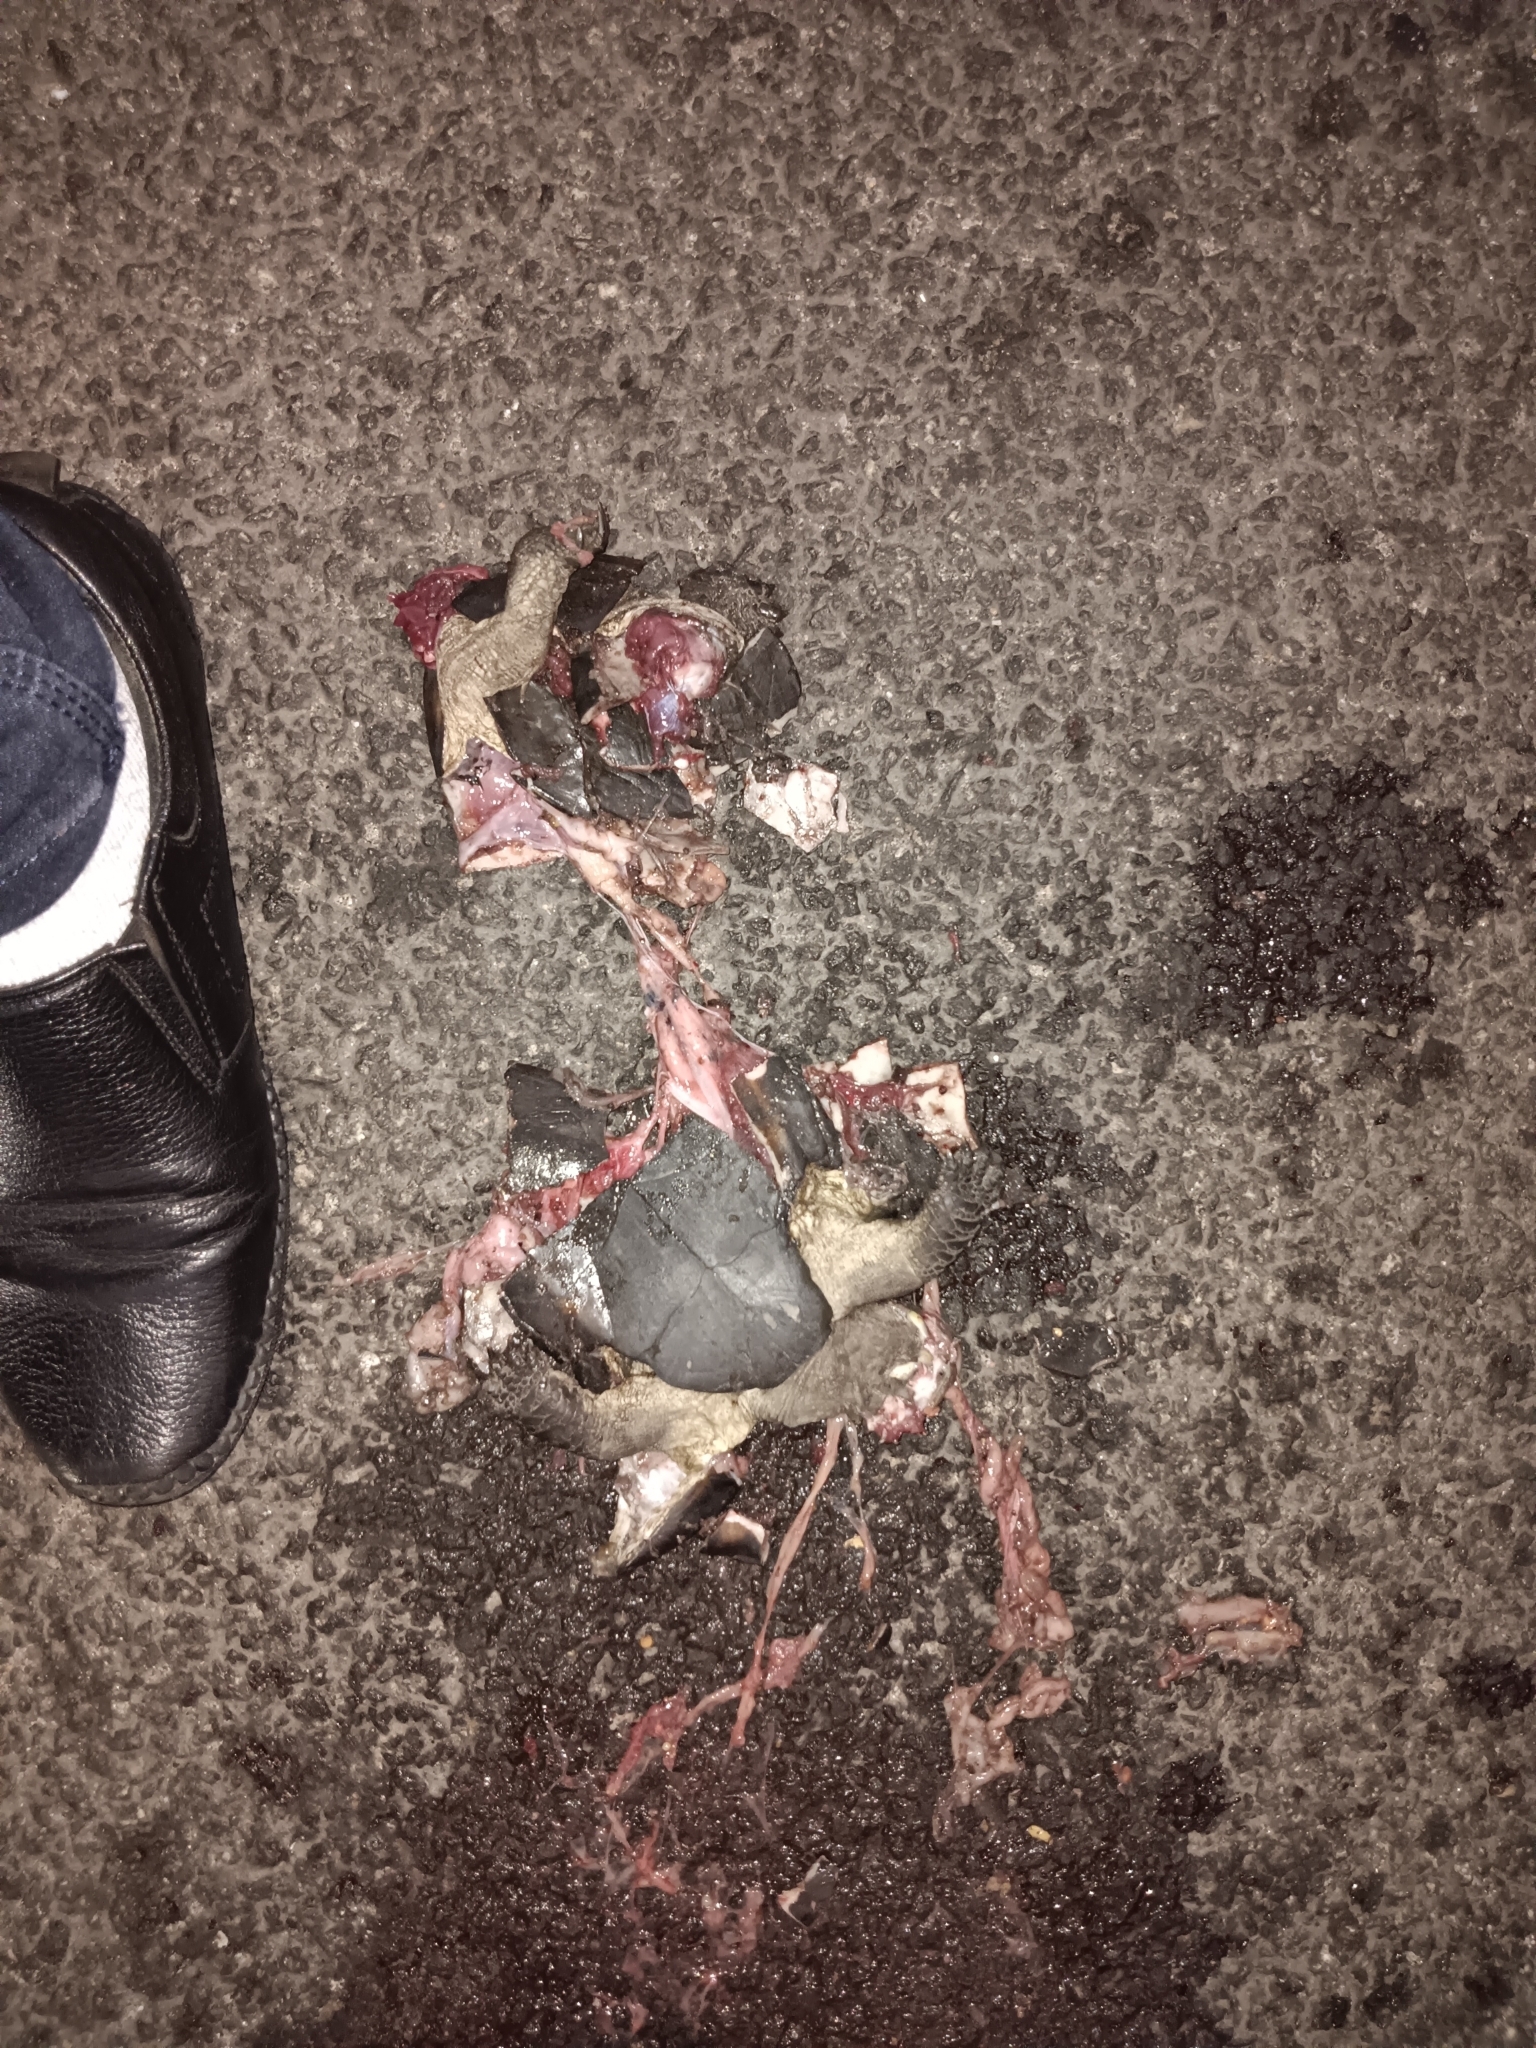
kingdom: Animalia
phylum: Chordata
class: Testudines
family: Geoemydidae
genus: Melanochelys
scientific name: Melanochelys trijuga
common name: Indian black turtle
